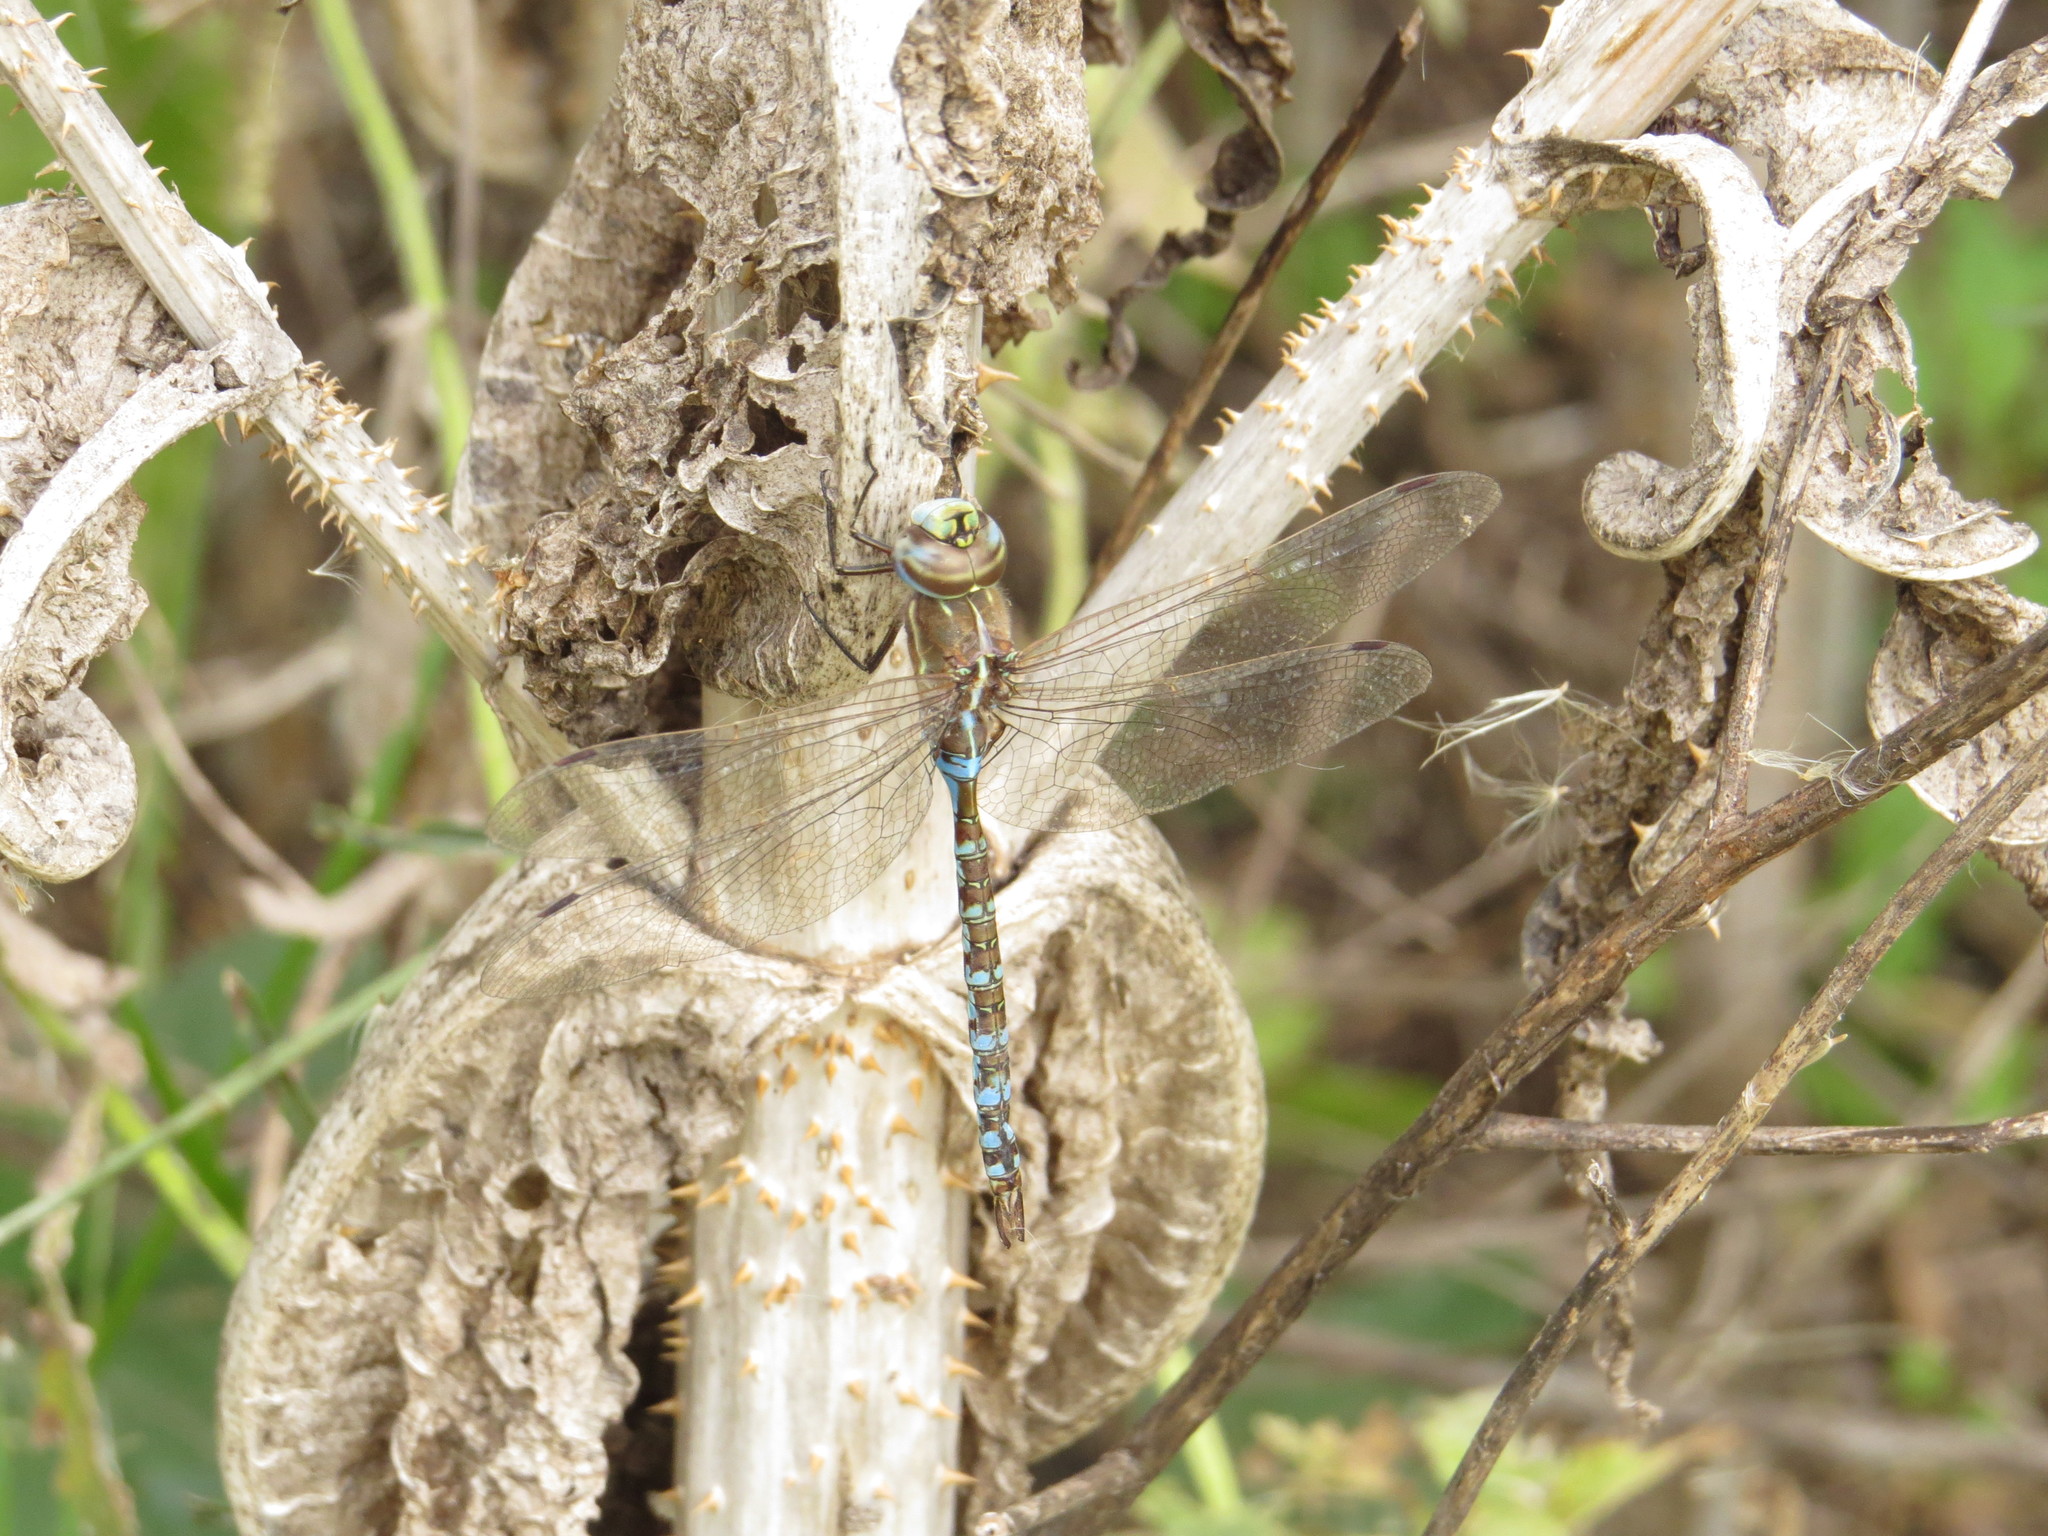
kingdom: Animalia
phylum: Arthropoda
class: Insecta
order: Odonata
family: Aeshnidae
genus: Rhionaeschna
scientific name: Rhionaeschna bonariensis
